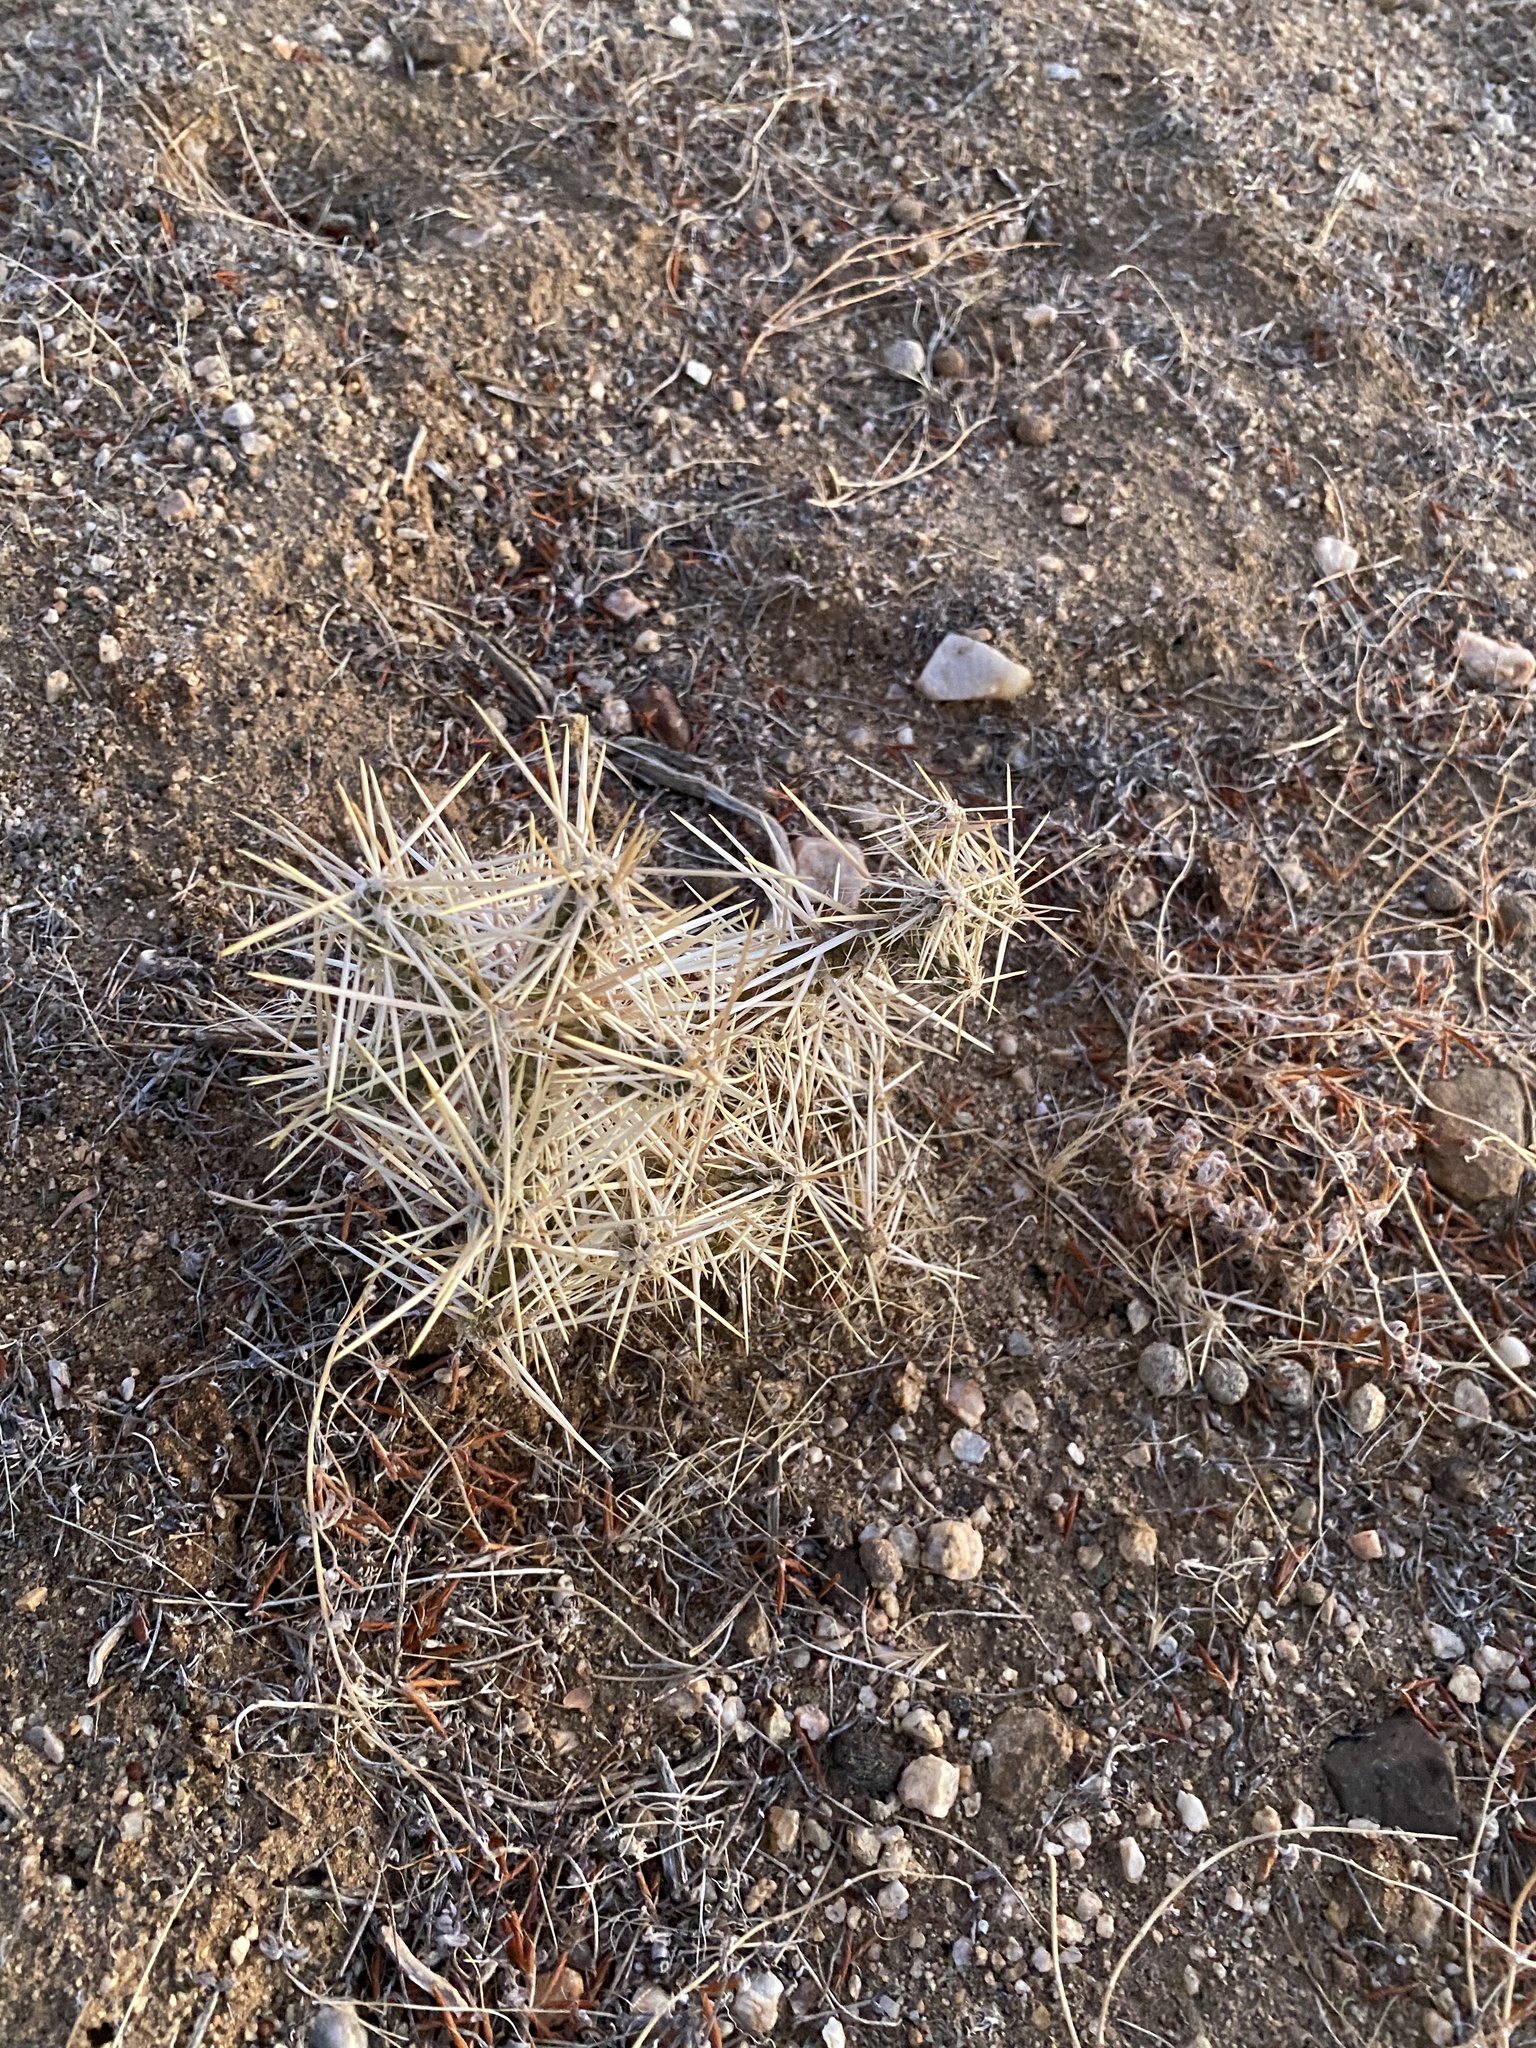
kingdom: Plantae
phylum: Tracheophyta
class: Magnoliopsida
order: Caryophyllales
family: Cactaceae
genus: Cylindropuntia
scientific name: Cylindropuntia ramosissima
